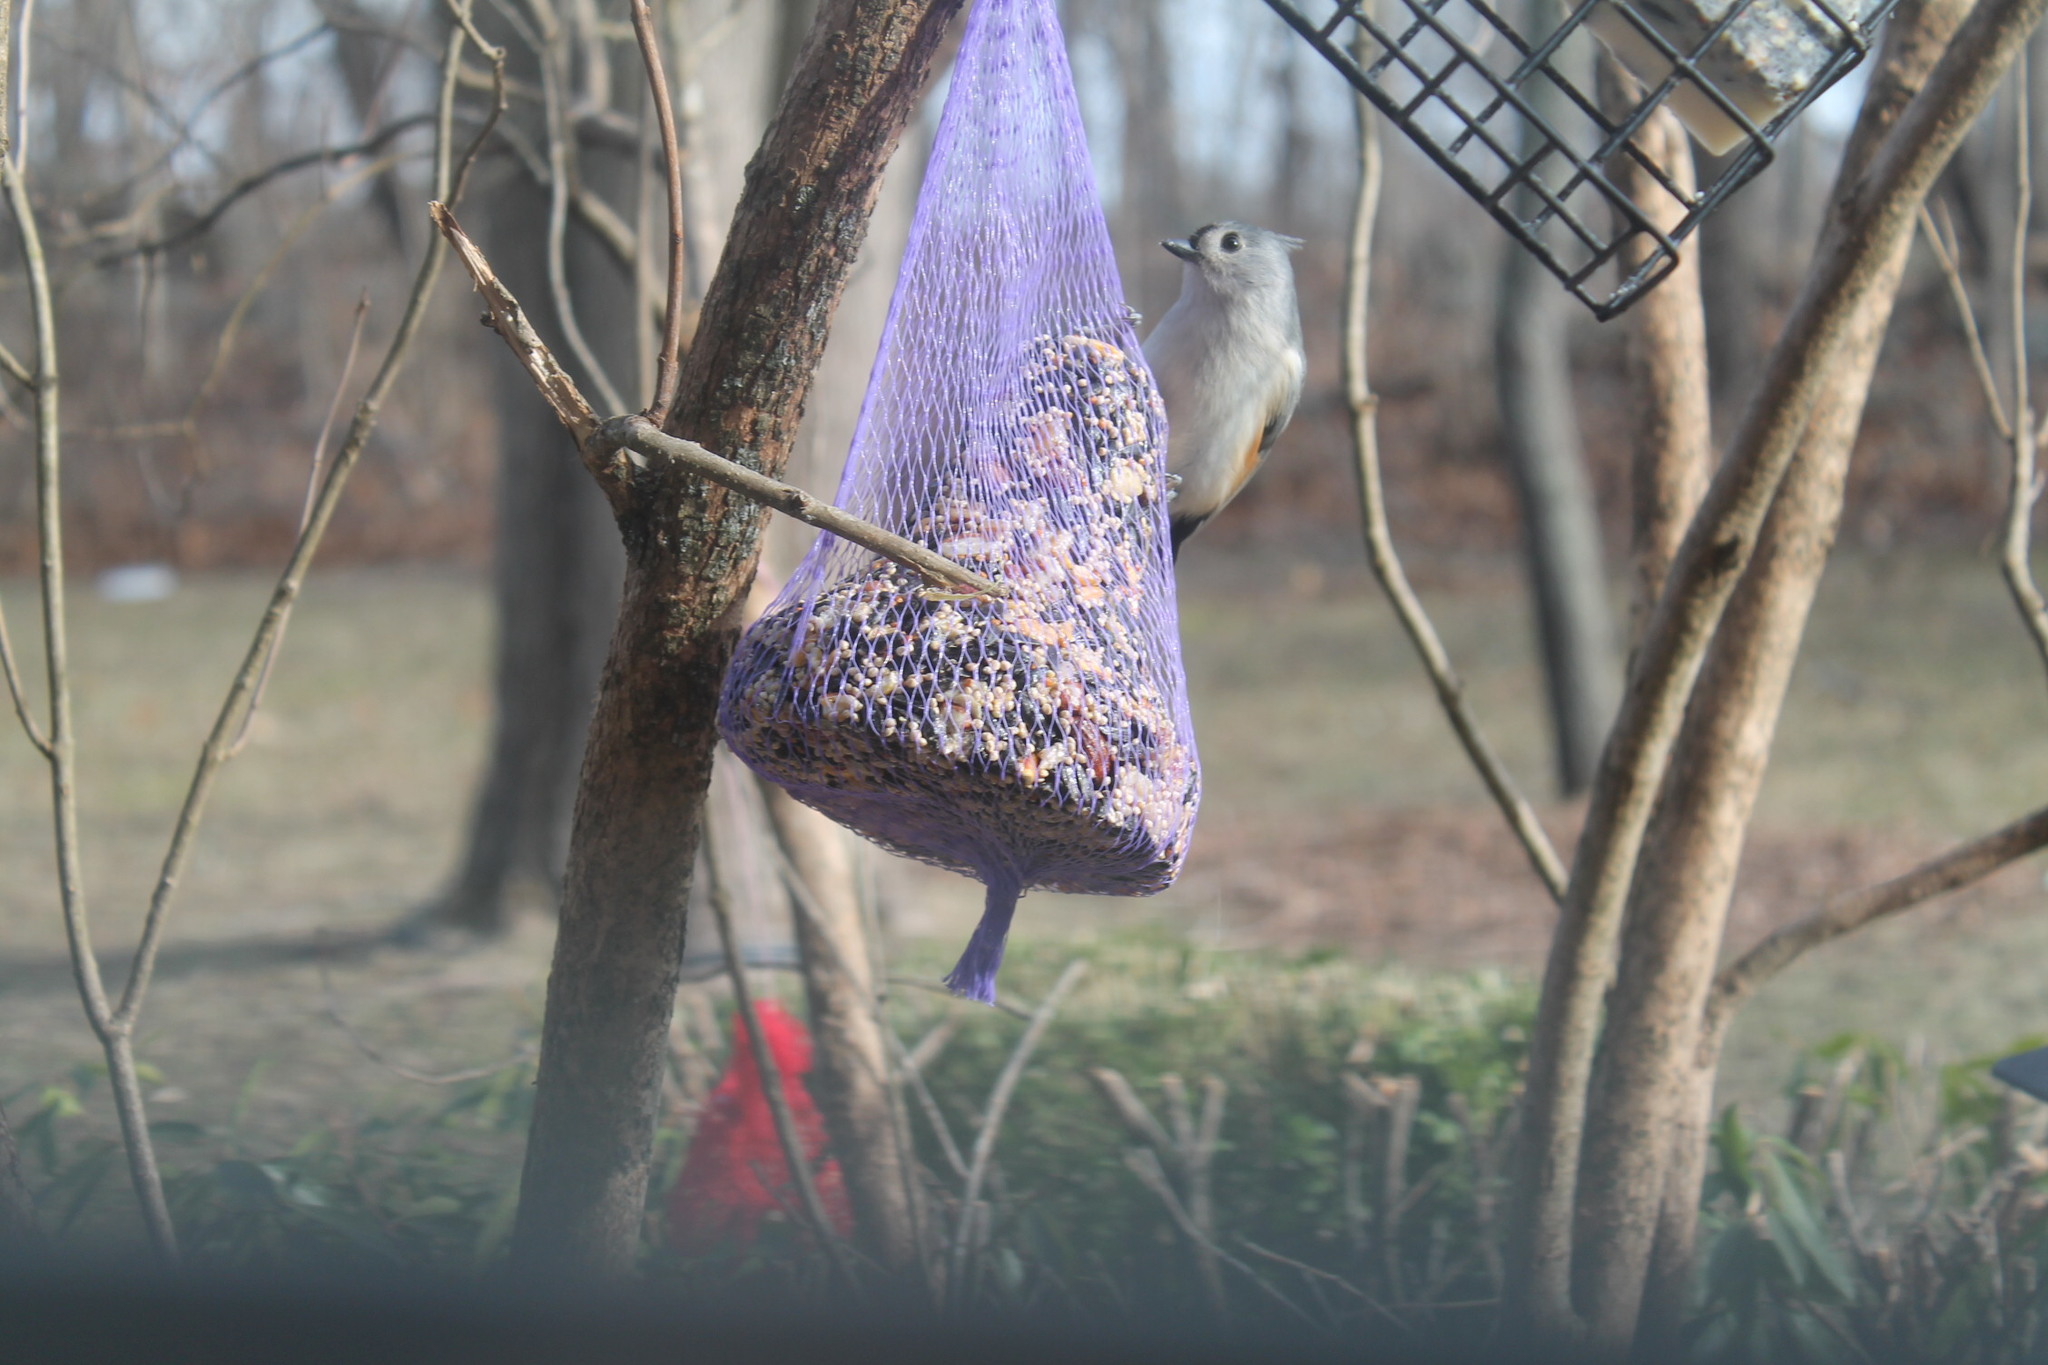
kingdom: Animalia
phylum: Chordata
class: Aves
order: Passeriformes
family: Paridae
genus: Baeolophus
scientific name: Baeolophus bicolor
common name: Tufted titmouse
